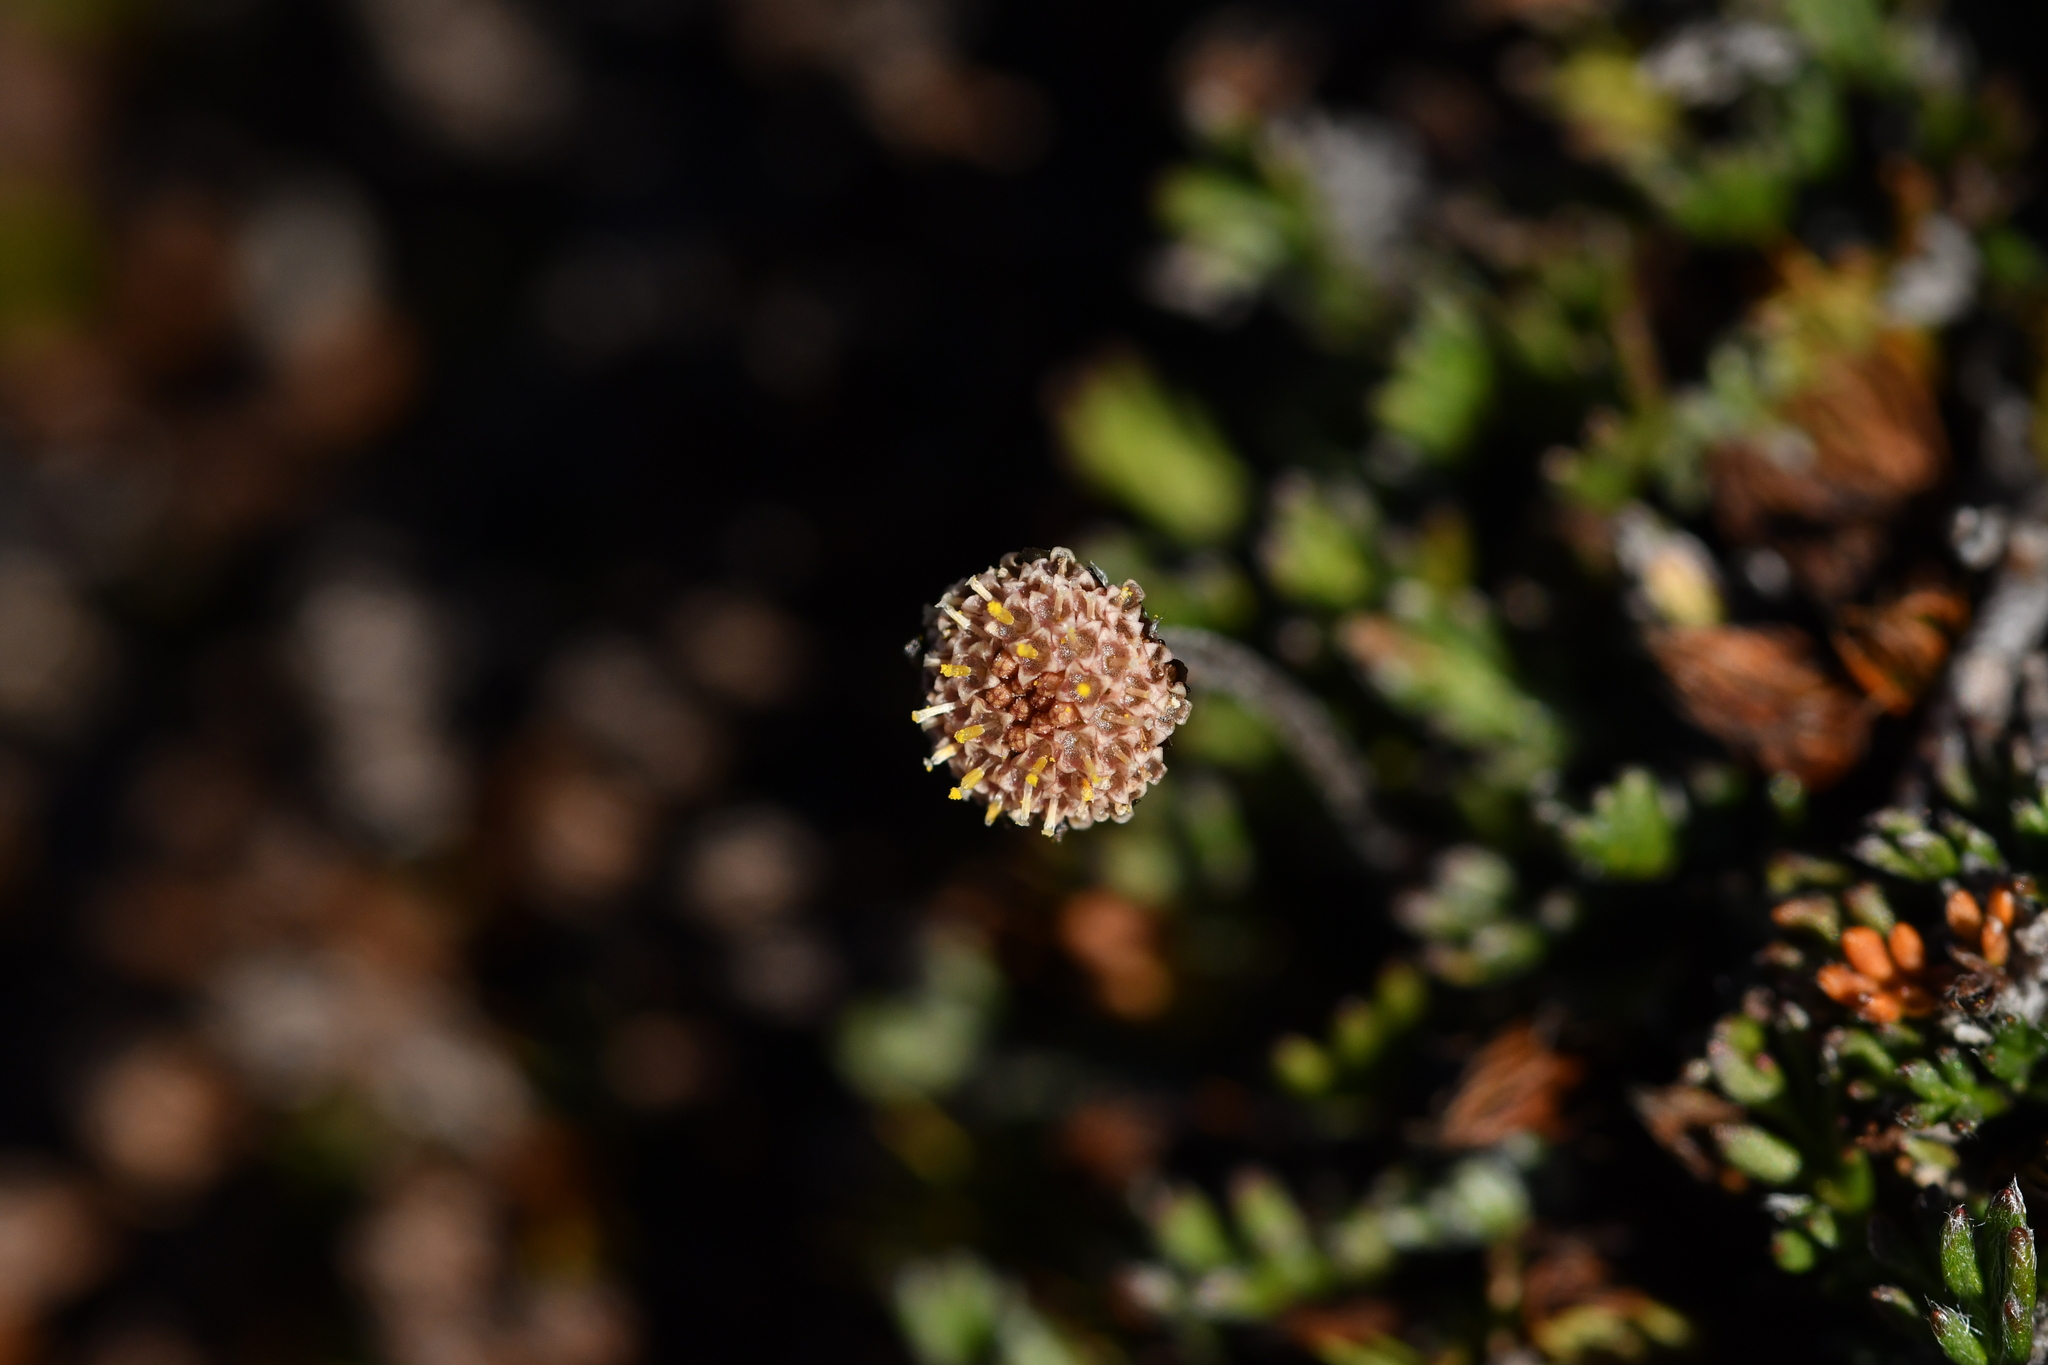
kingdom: Plantae
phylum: Tracheophyta
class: Magnoliopsida
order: Asterales
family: Asteraceae
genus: Leptinella
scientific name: Leptinella pectinata
